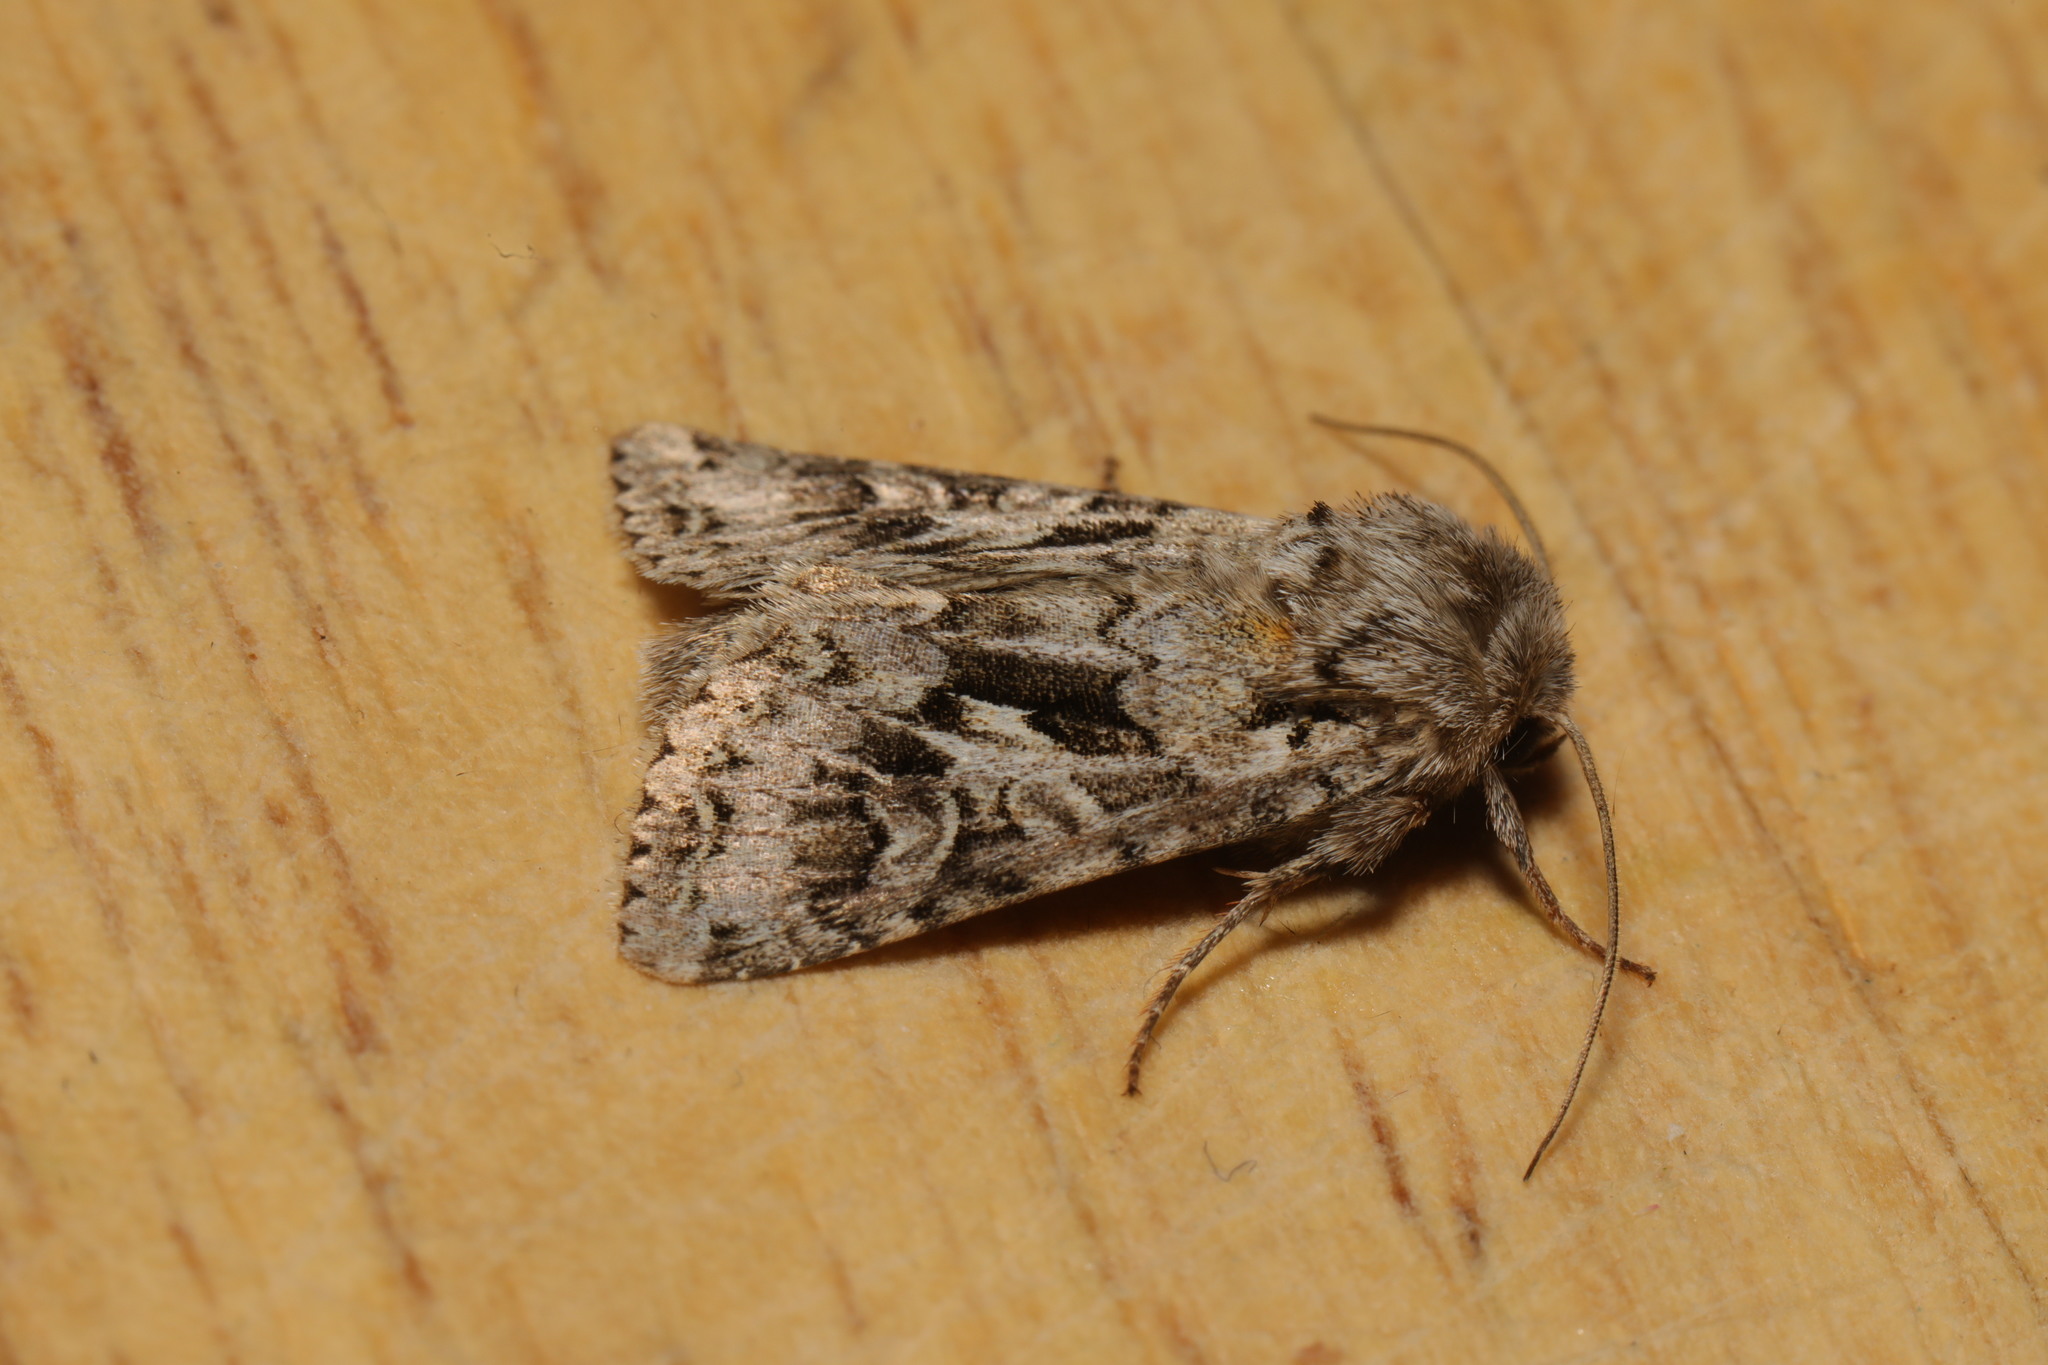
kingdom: Animalia
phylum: Arthropoda
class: Insecta
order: Lepidoptera
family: Noctuidae
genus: Hada
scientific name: Hada plebeja
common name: Shears
